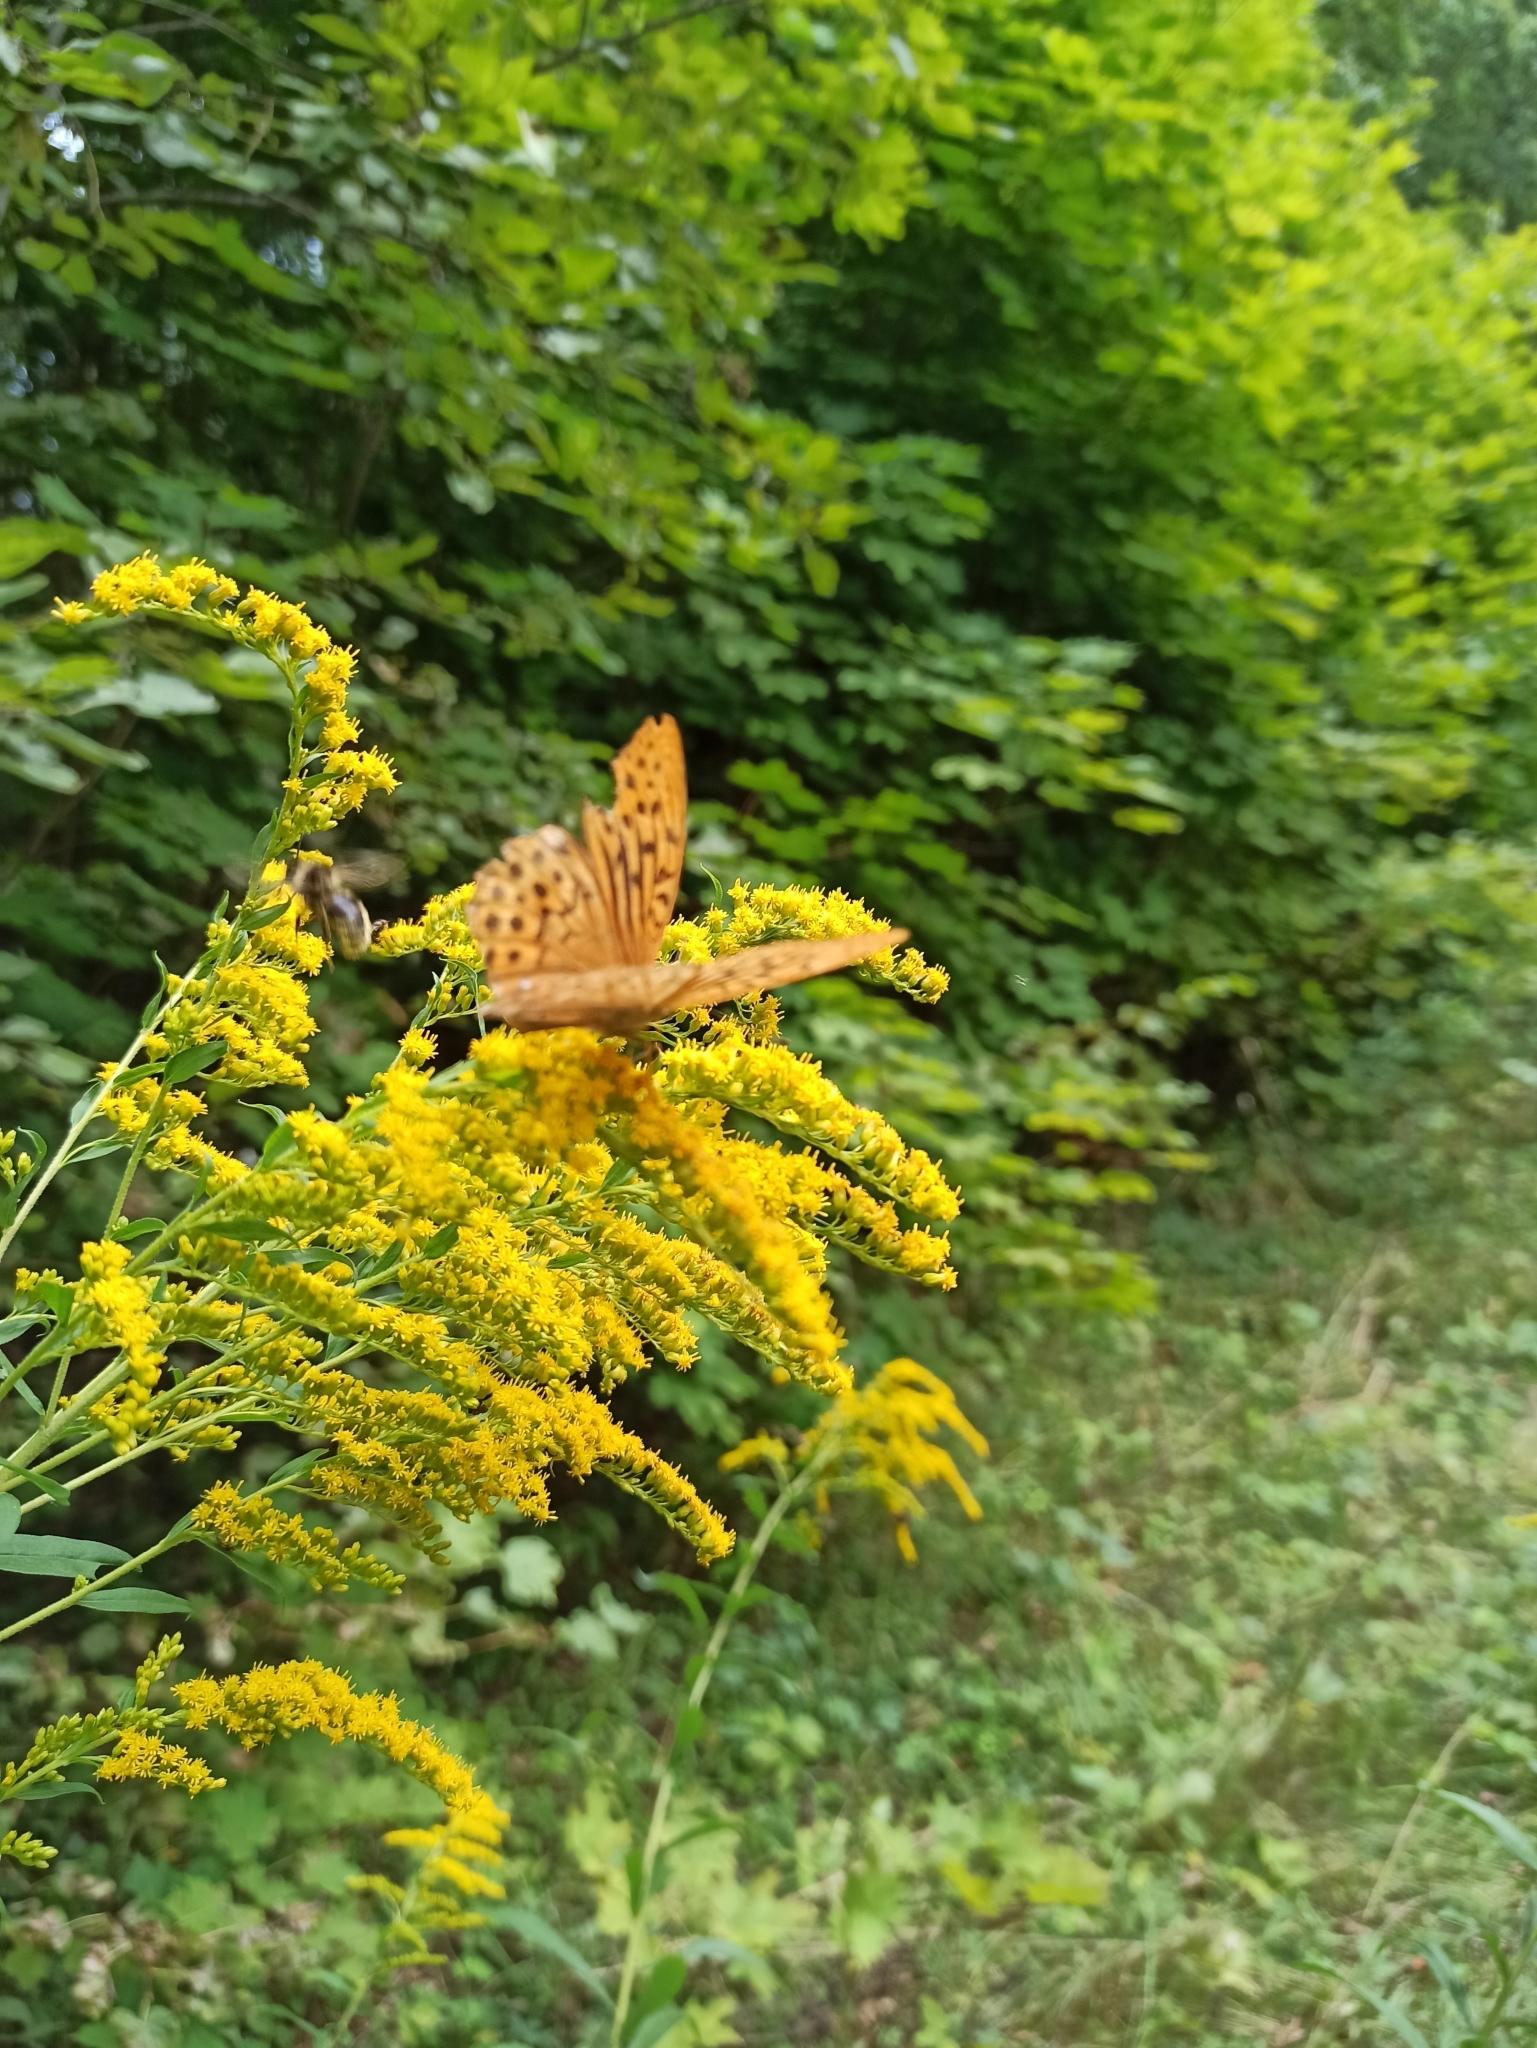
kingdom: Animalia
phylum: Arthropoda
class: Insecta
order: Lepidoptera
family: Nymphalidae
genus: Argynnis
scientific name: Argynnis paphia
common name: Silver-washed fritillary
